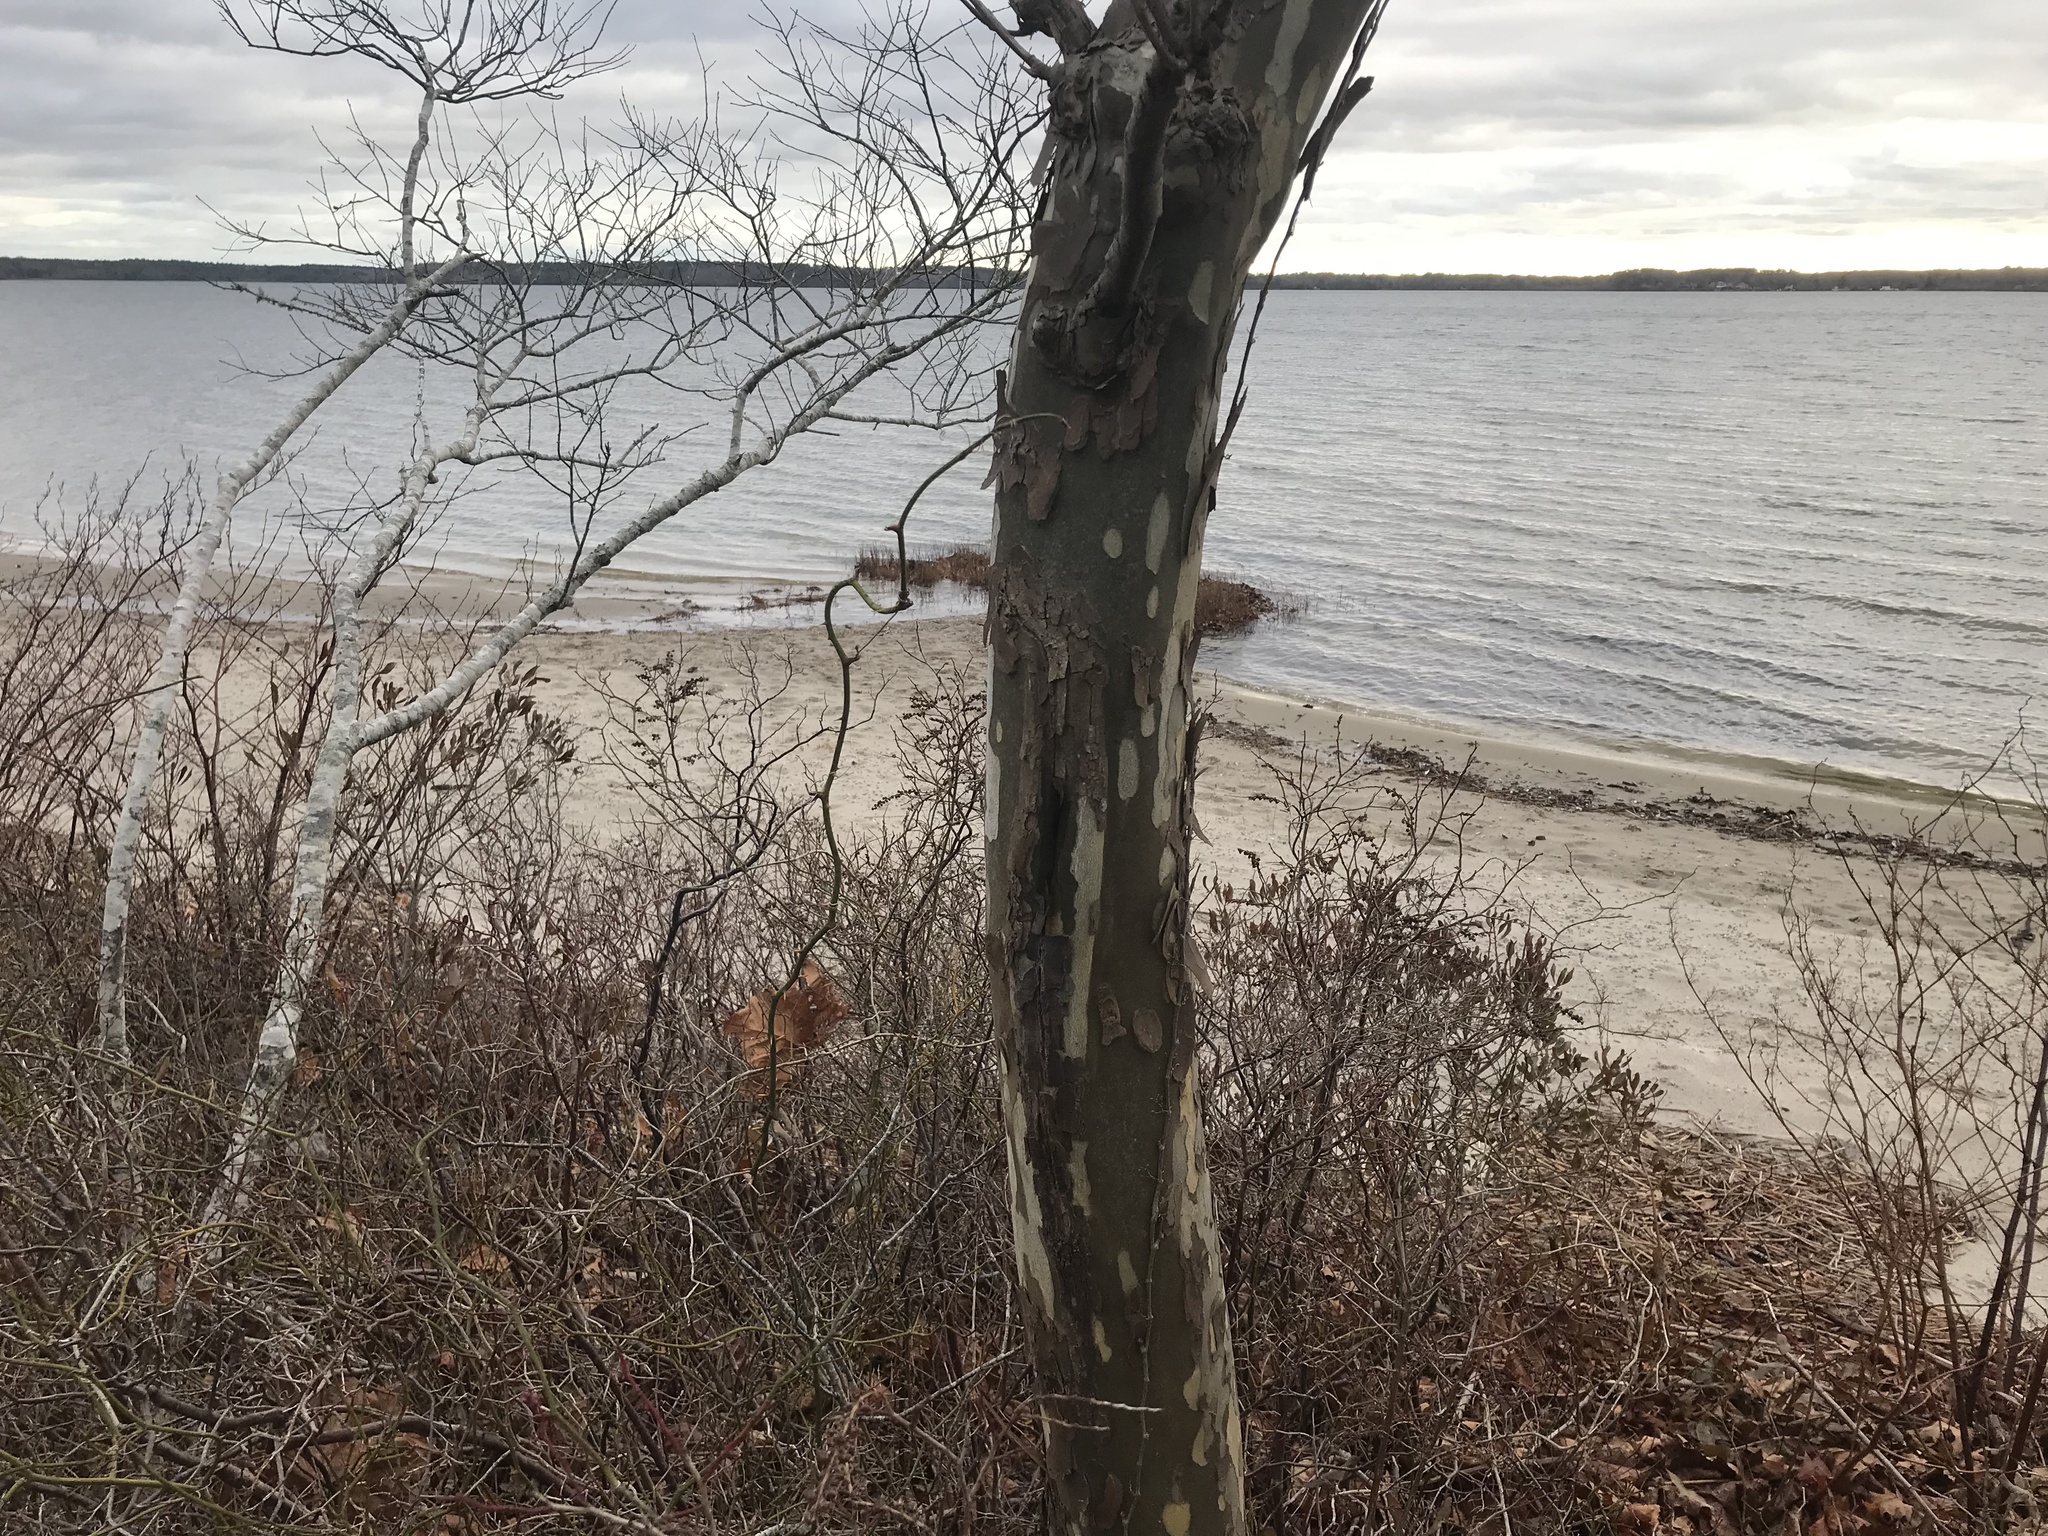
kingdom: Plantae
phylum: Tracheophyta
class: Magnoliopsida
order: Proteales
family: Platanaceae
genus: Platanus
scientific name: Platanus occidentalis
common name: American sycamore
